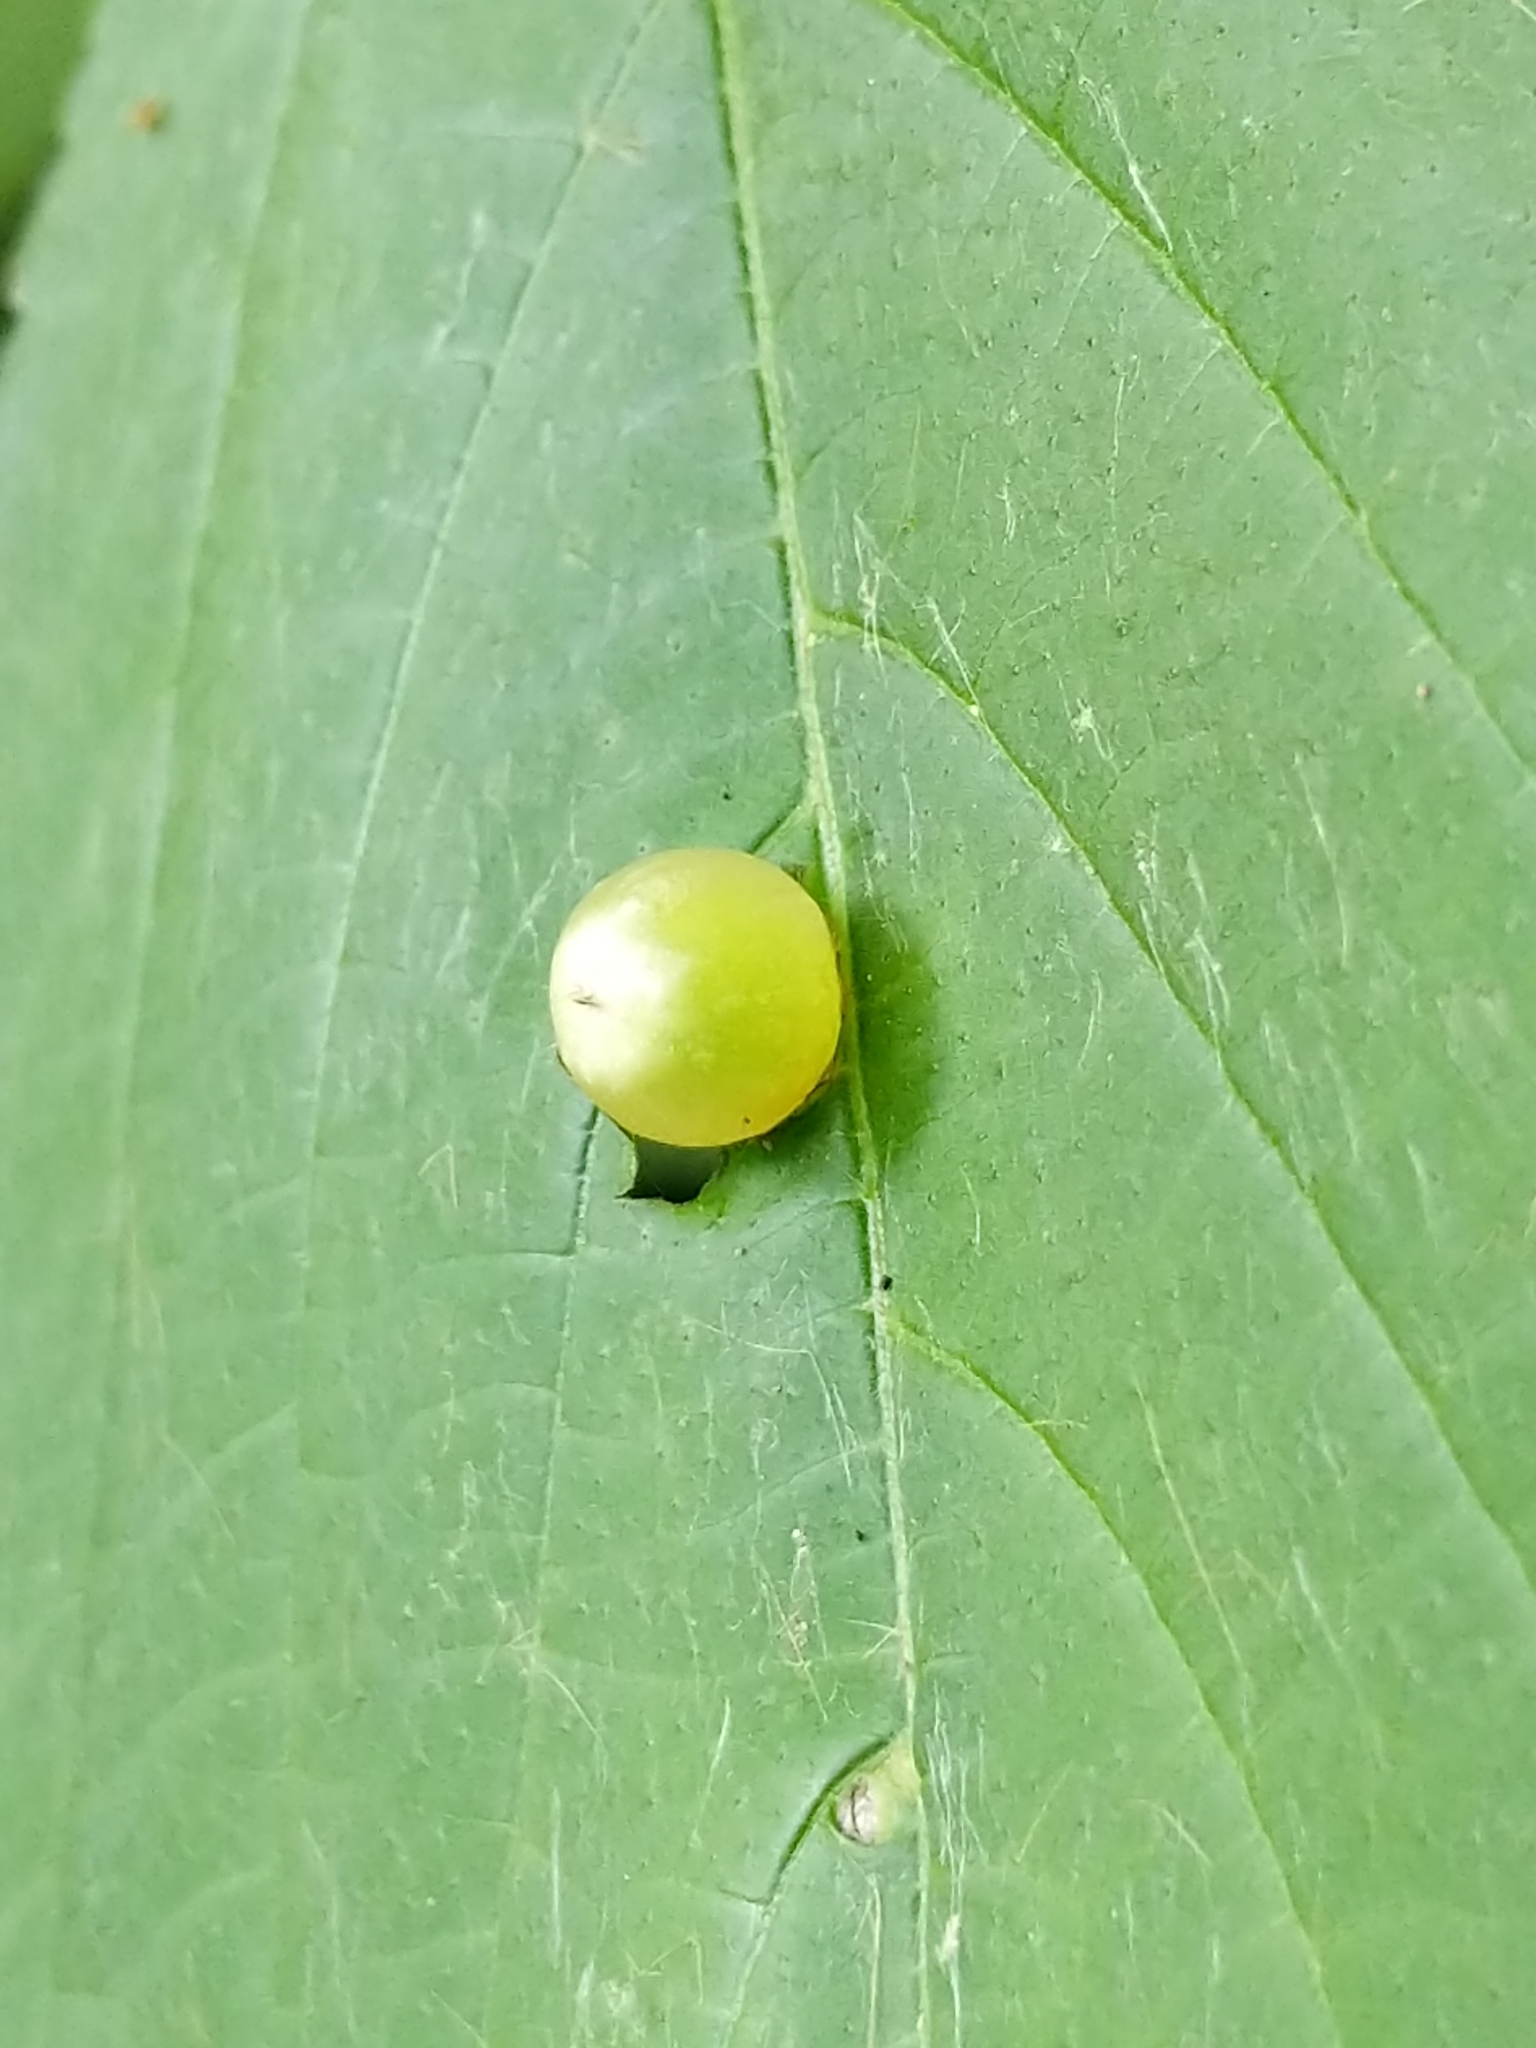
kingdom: Animalia
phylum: Arthropoda
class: Insecta
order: Diptera
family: Cecidomyiidae
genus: Dasineura
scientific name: Dasineura investita
